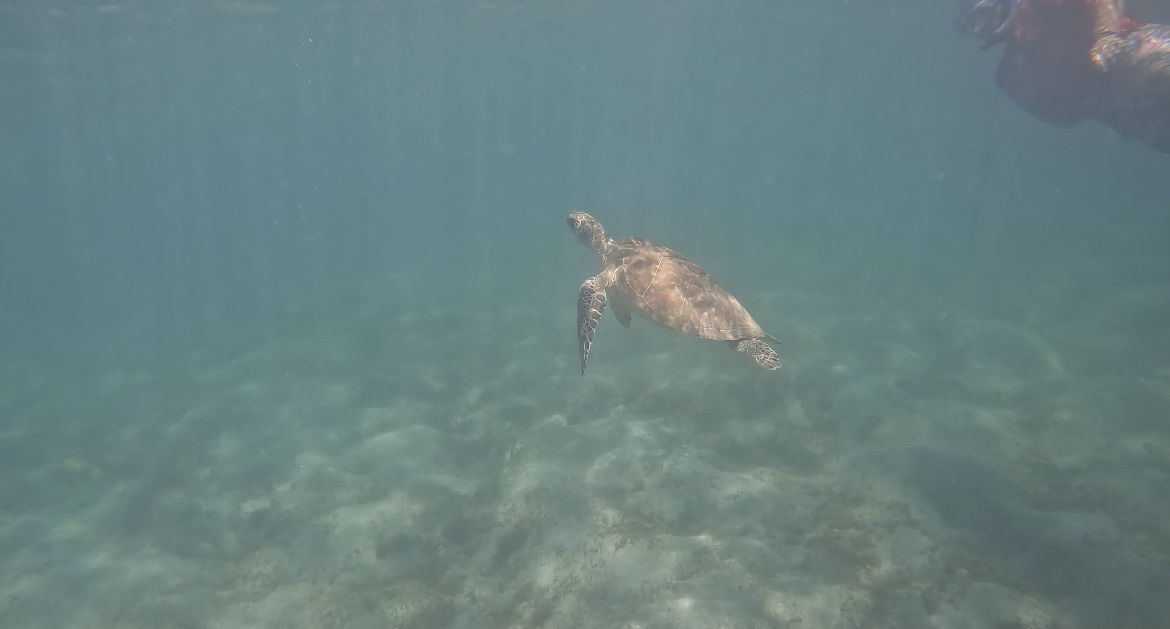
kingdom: Animalia
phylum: Chordata
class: Testudines
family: Cheloniidae
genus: Chelonia
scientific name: Chelonia mydas
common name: Green turtle
